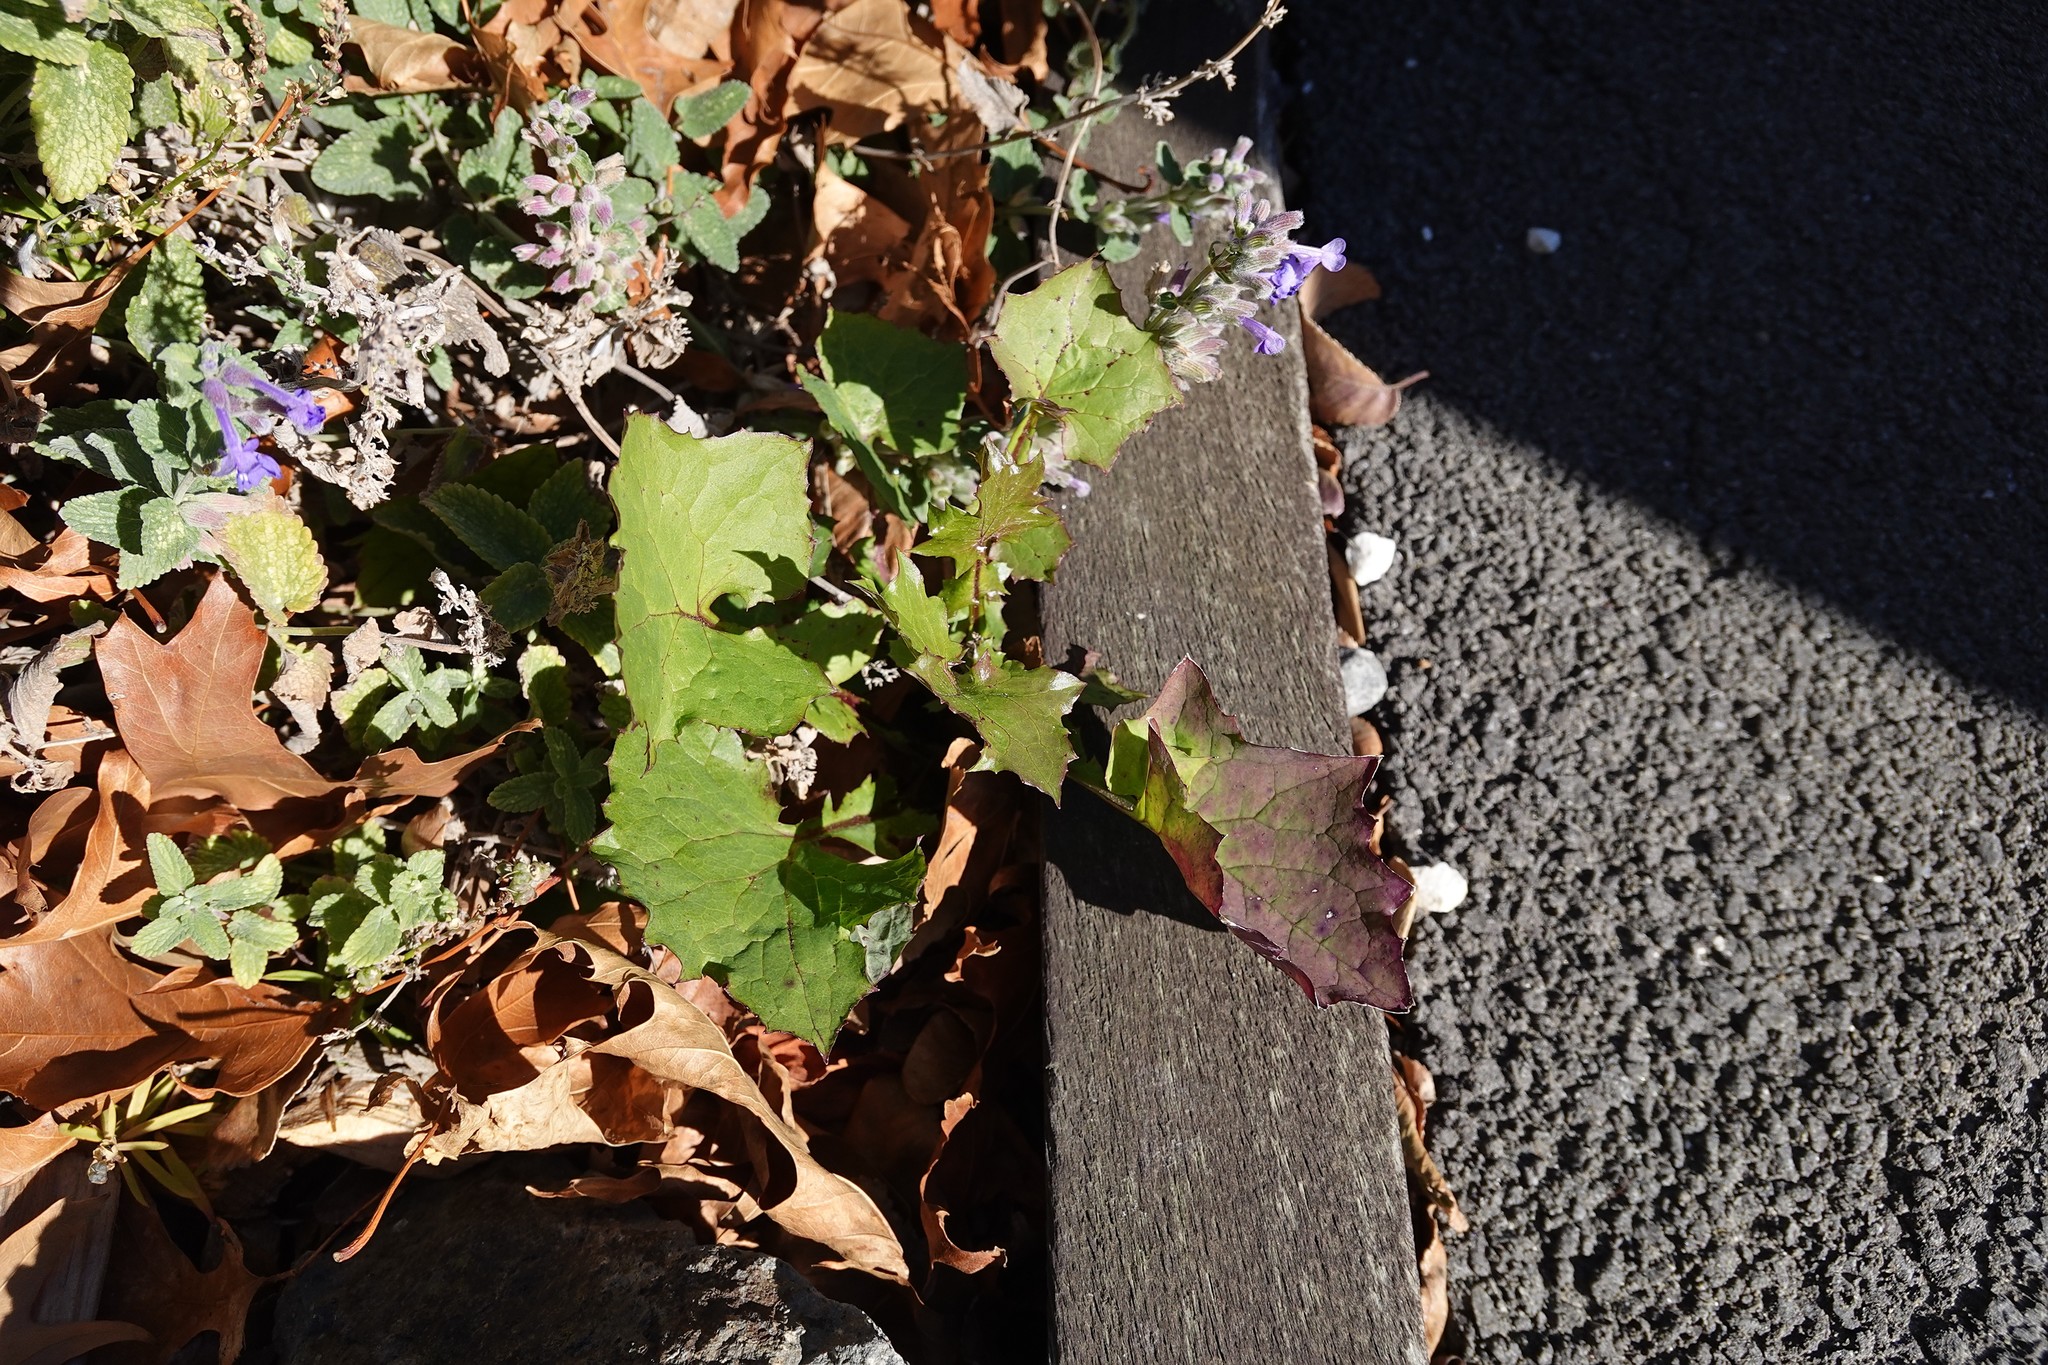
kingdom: Plantae
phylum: Tracheophyta
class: Magnoliopsida
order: Asterales
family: Asteraceae
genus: Mycelis
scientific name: Mycelis muralis
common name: Wall lettuce
